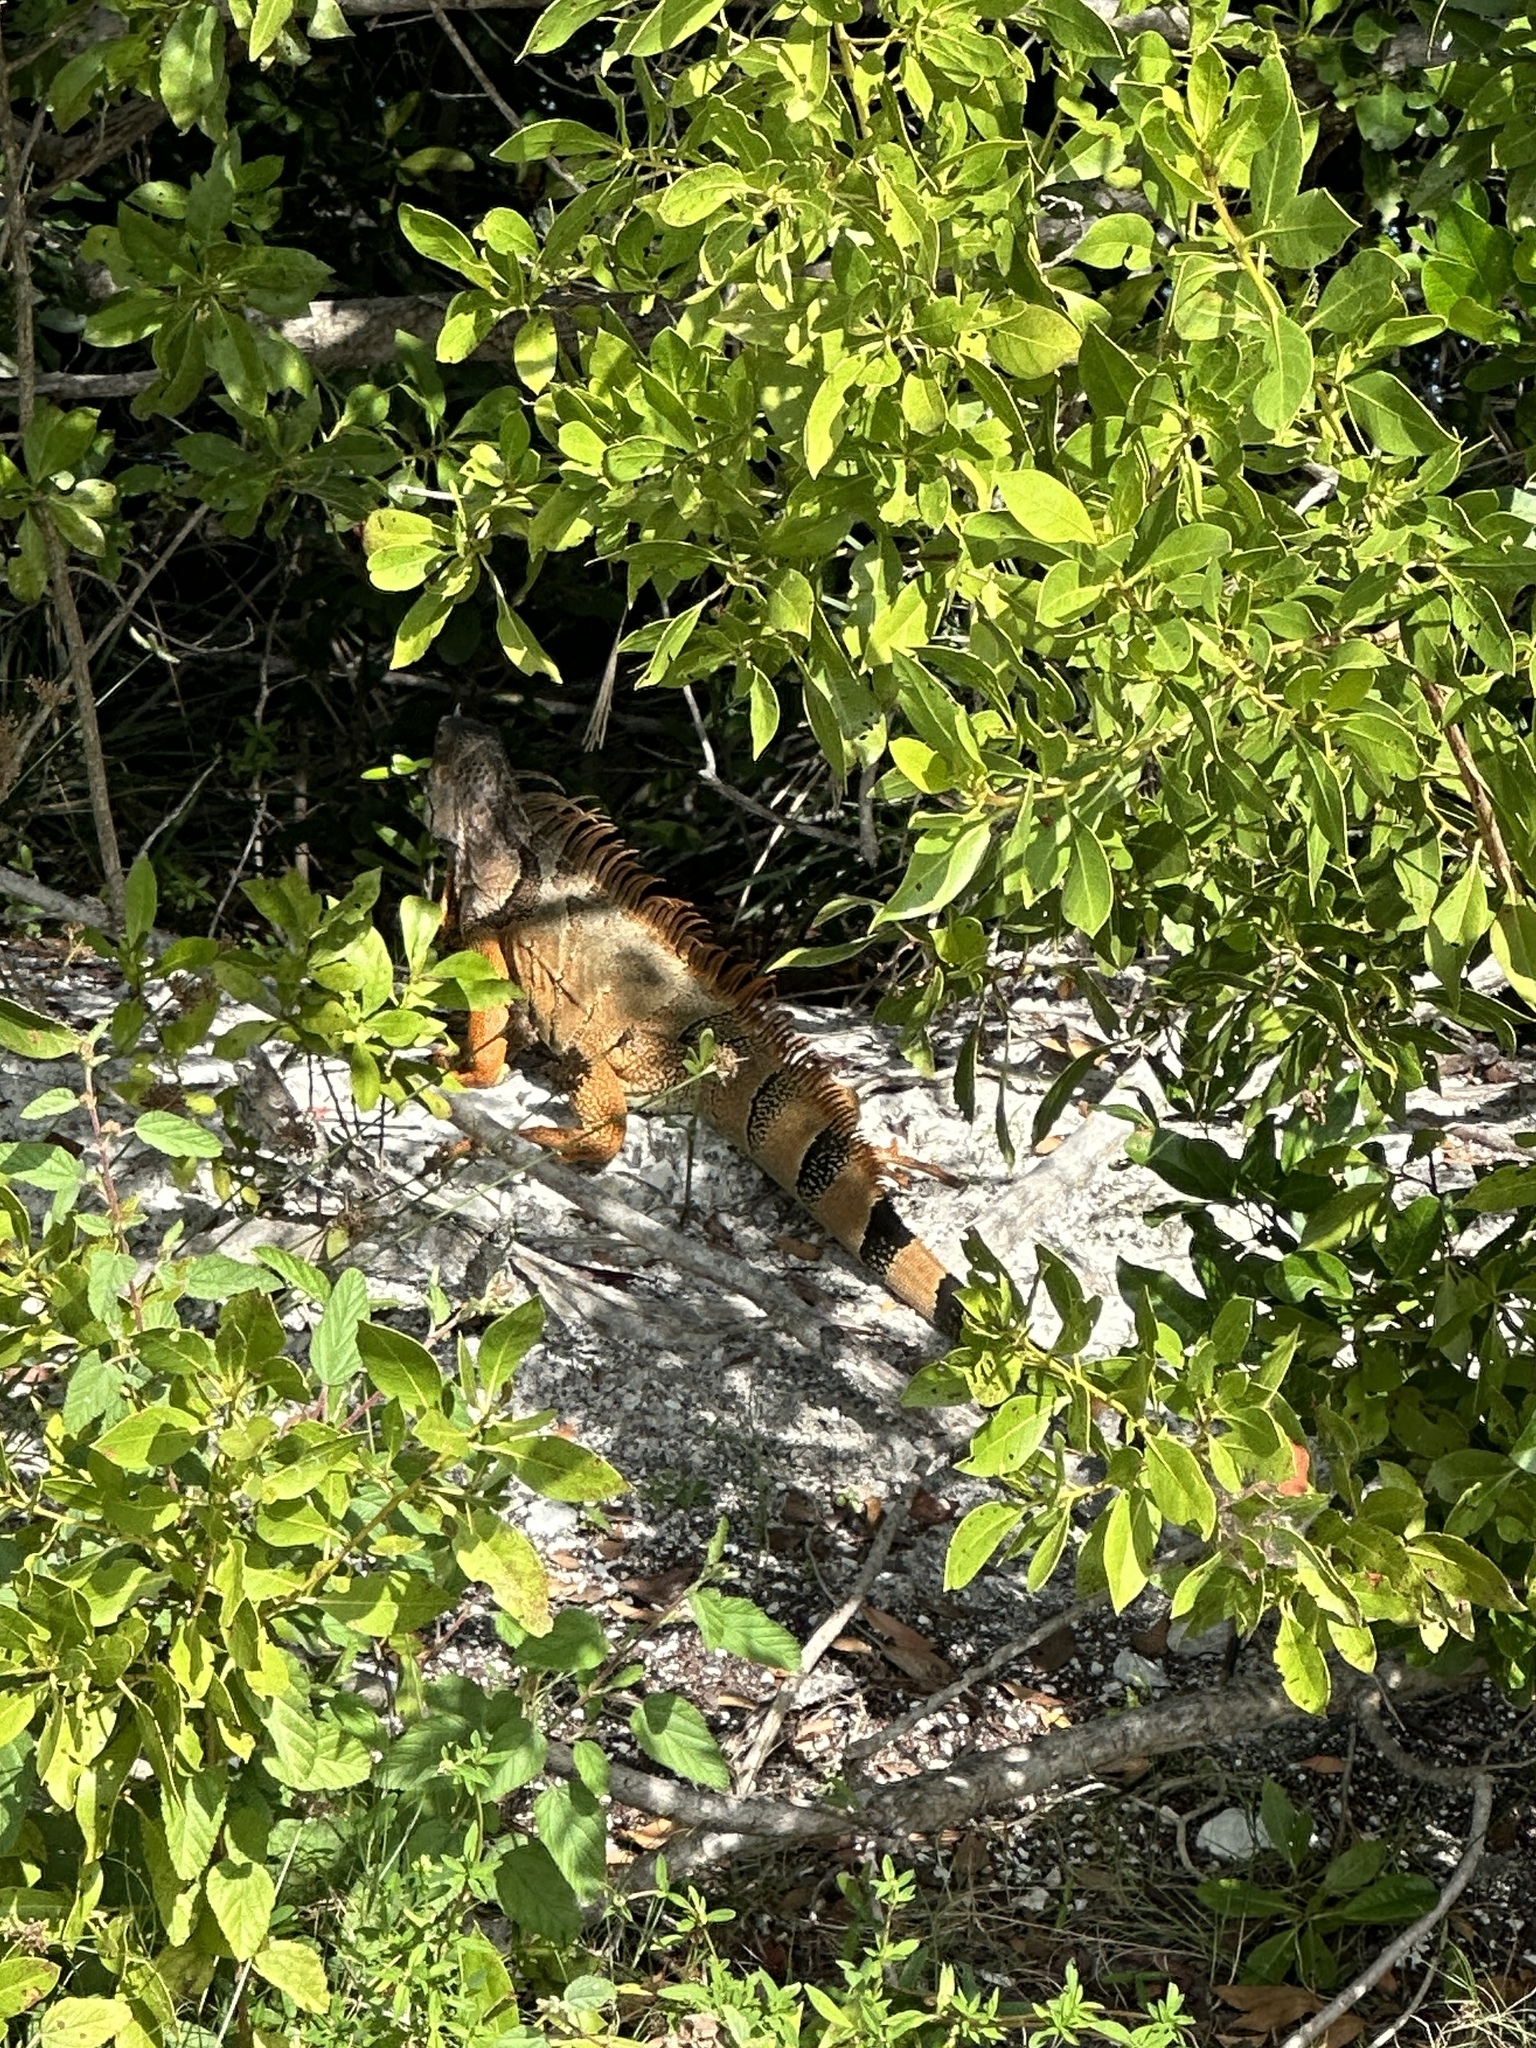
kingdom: Animalia
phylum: Chordata
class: Squamata
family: Iguanidae
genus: Iguana
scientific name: Iguana iguana
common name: Green iguana
